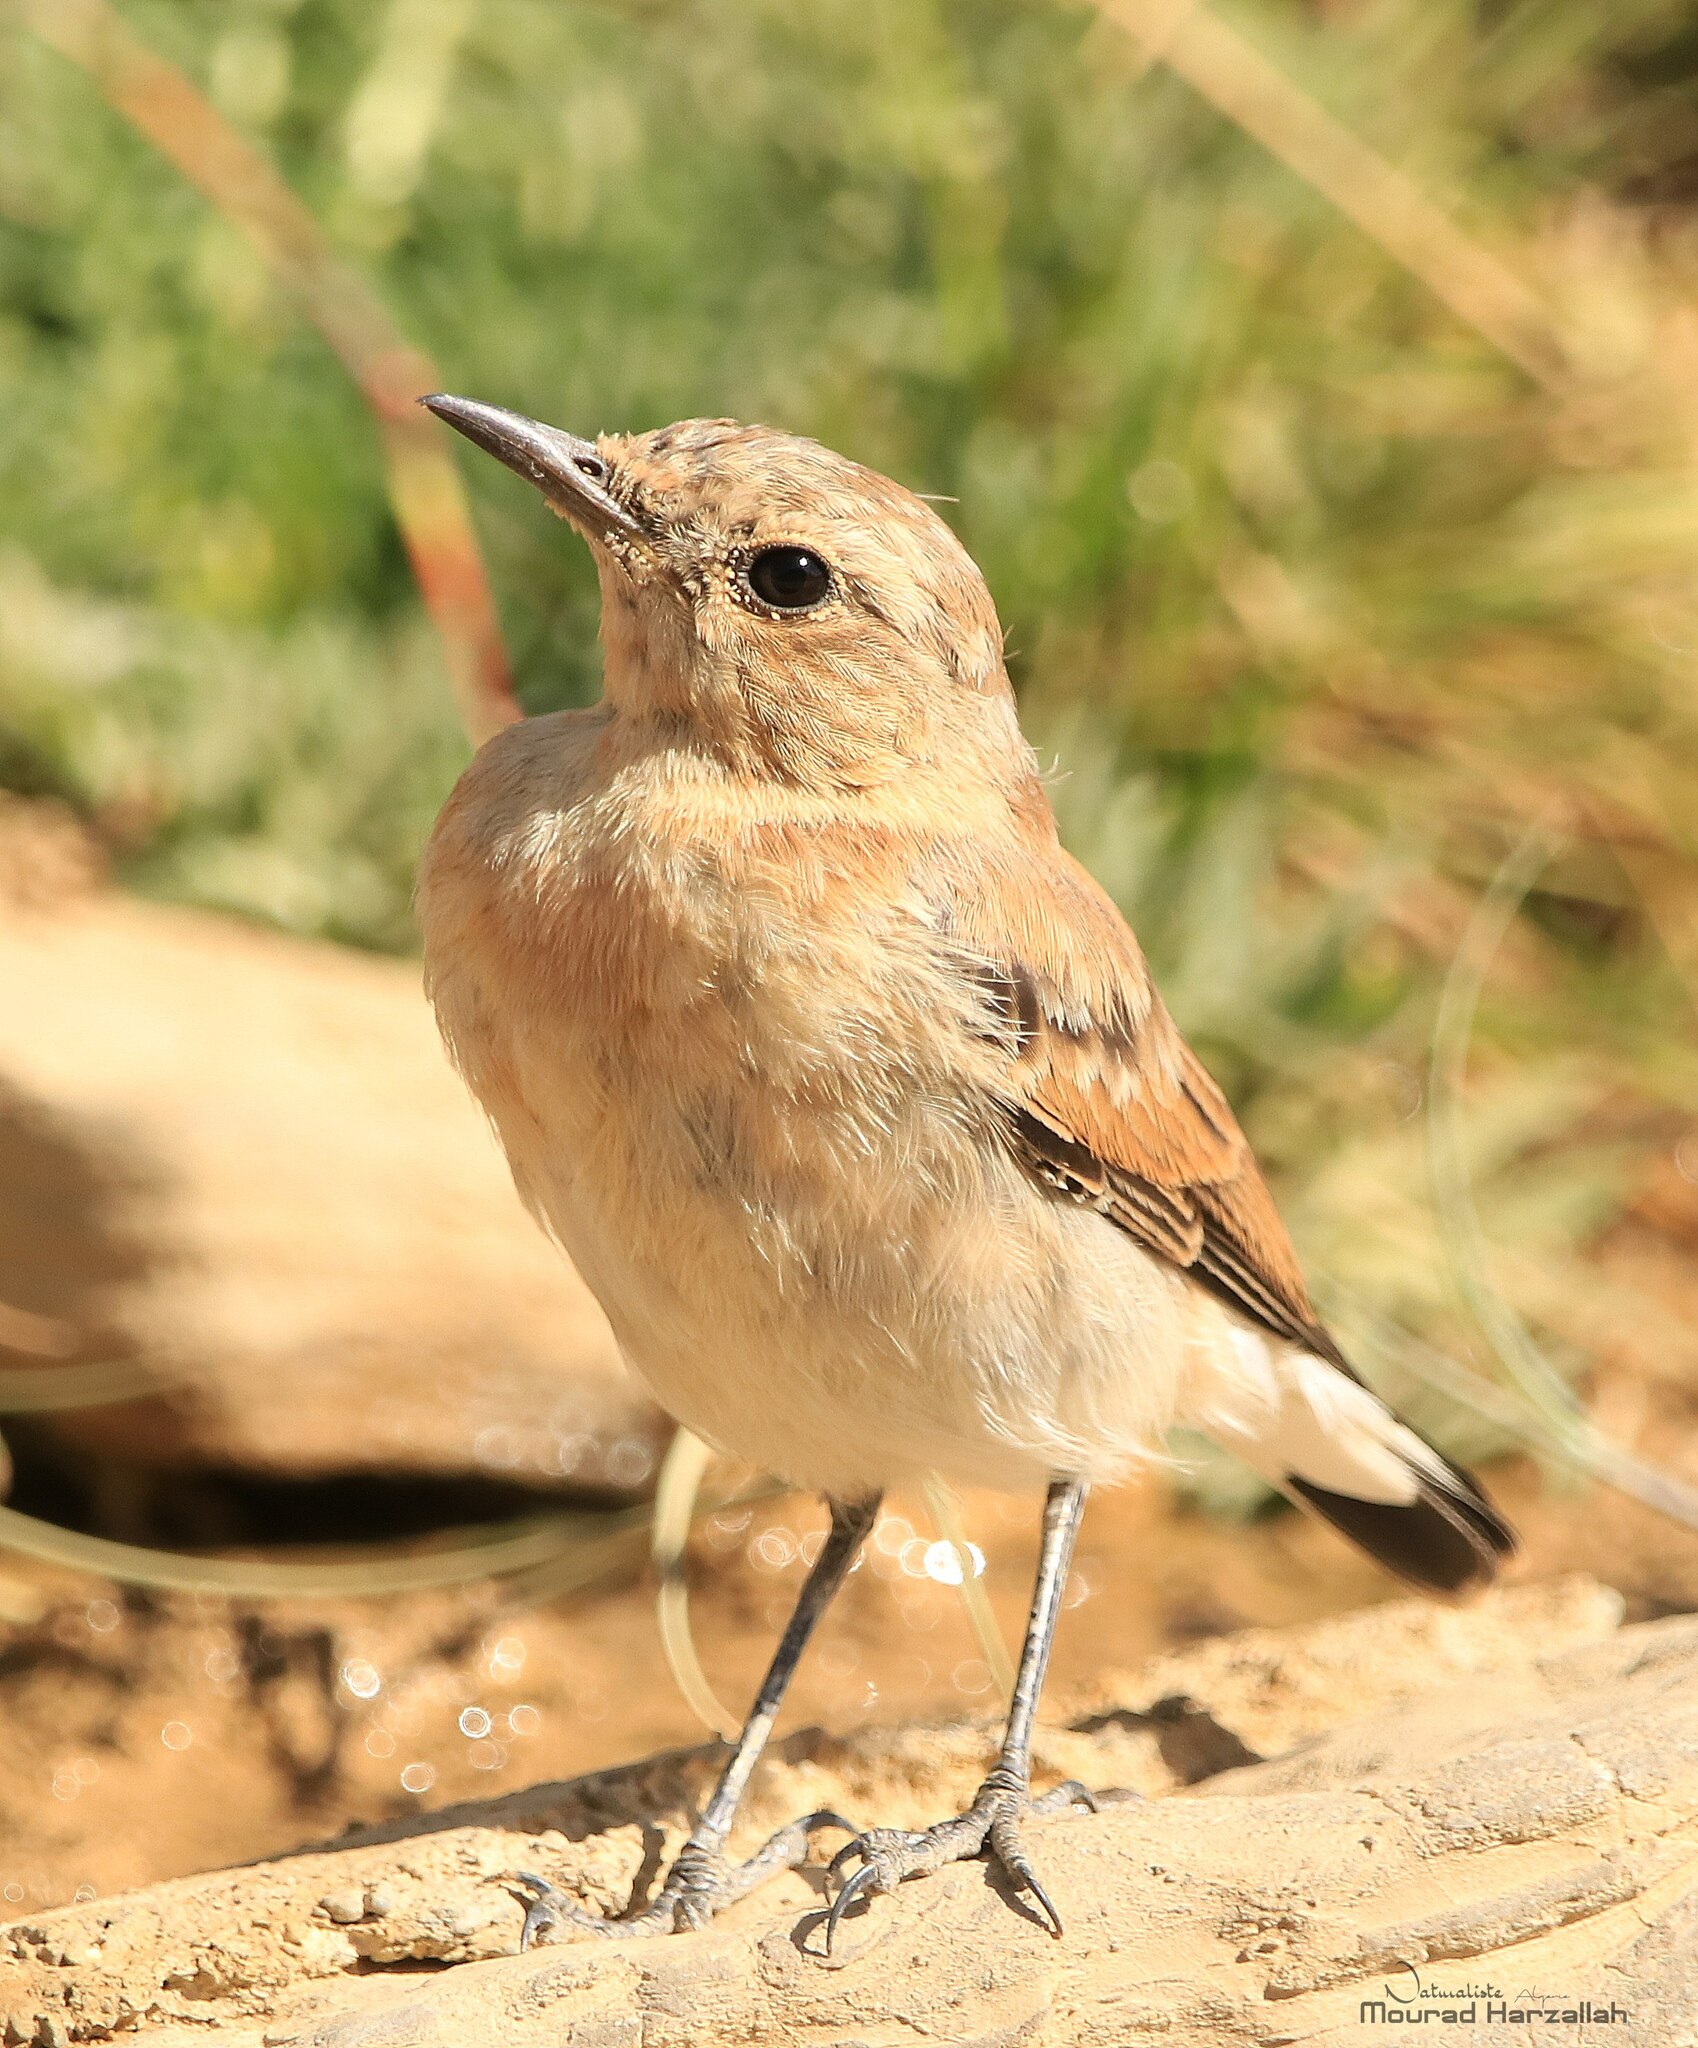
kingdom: Animalia
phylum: Chordata
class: Aves
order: Passeriformes
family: Muscicapidae
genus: Oenanthe
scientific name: Oenanthe oenanthe
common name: Northern wheatear
